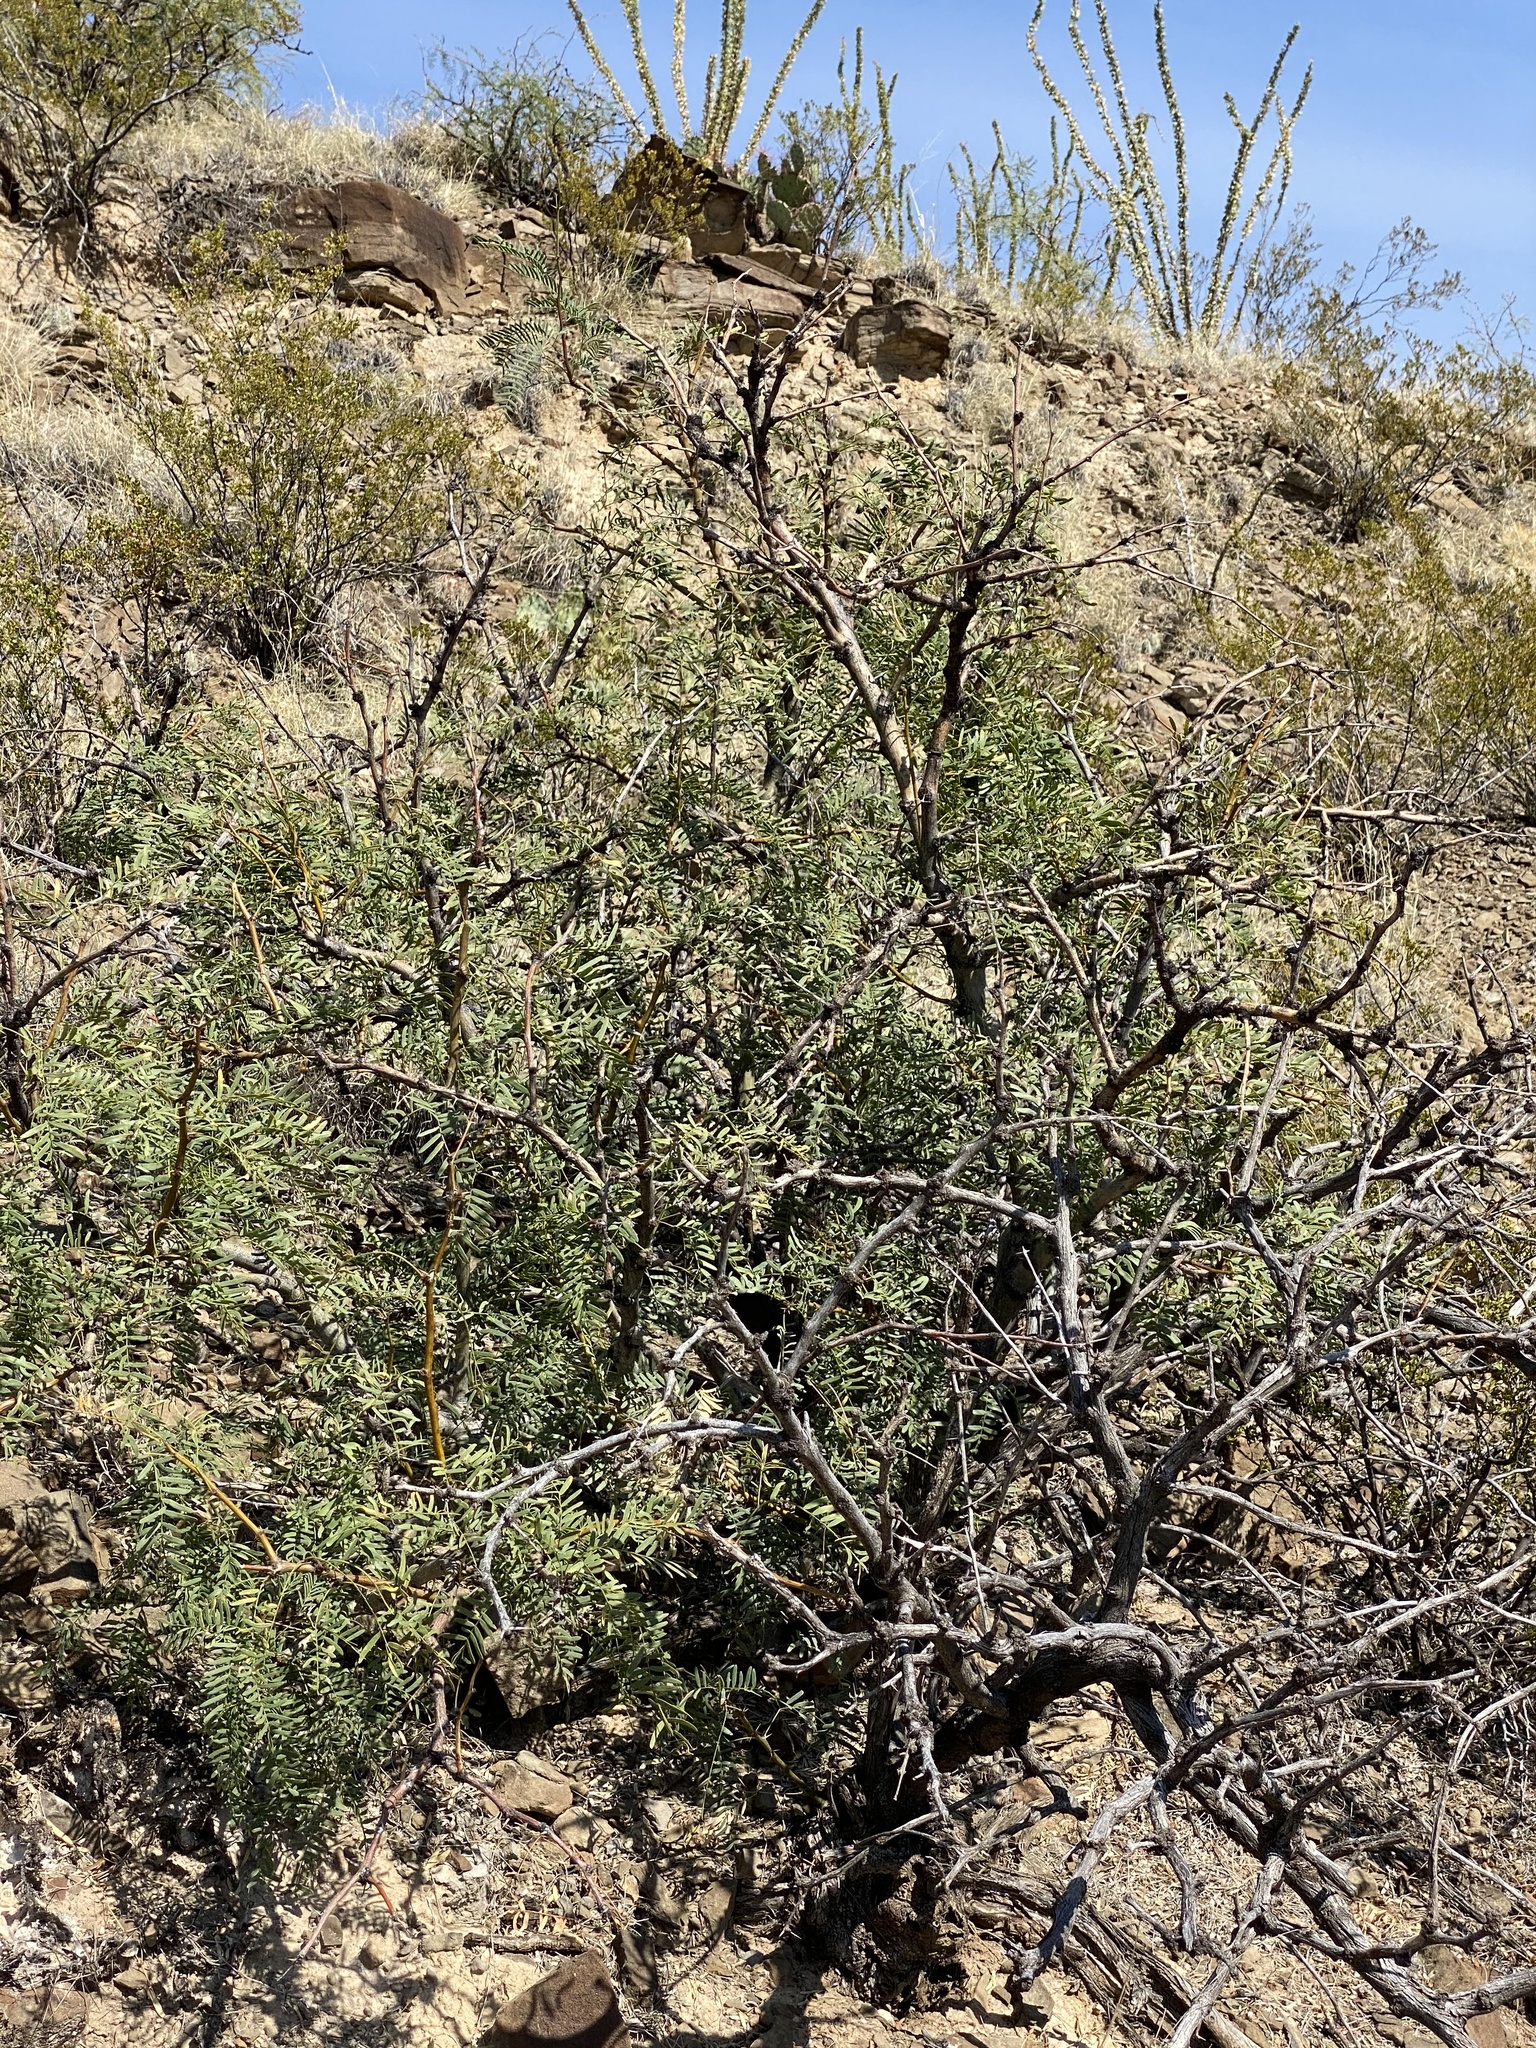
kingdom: Plantae
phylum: Tracheophyta
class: Magnoliopsida
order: Fabales
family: Fabaceae
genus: Prosopis
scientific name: Prosopis glandulosa
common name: Honey mesquite
